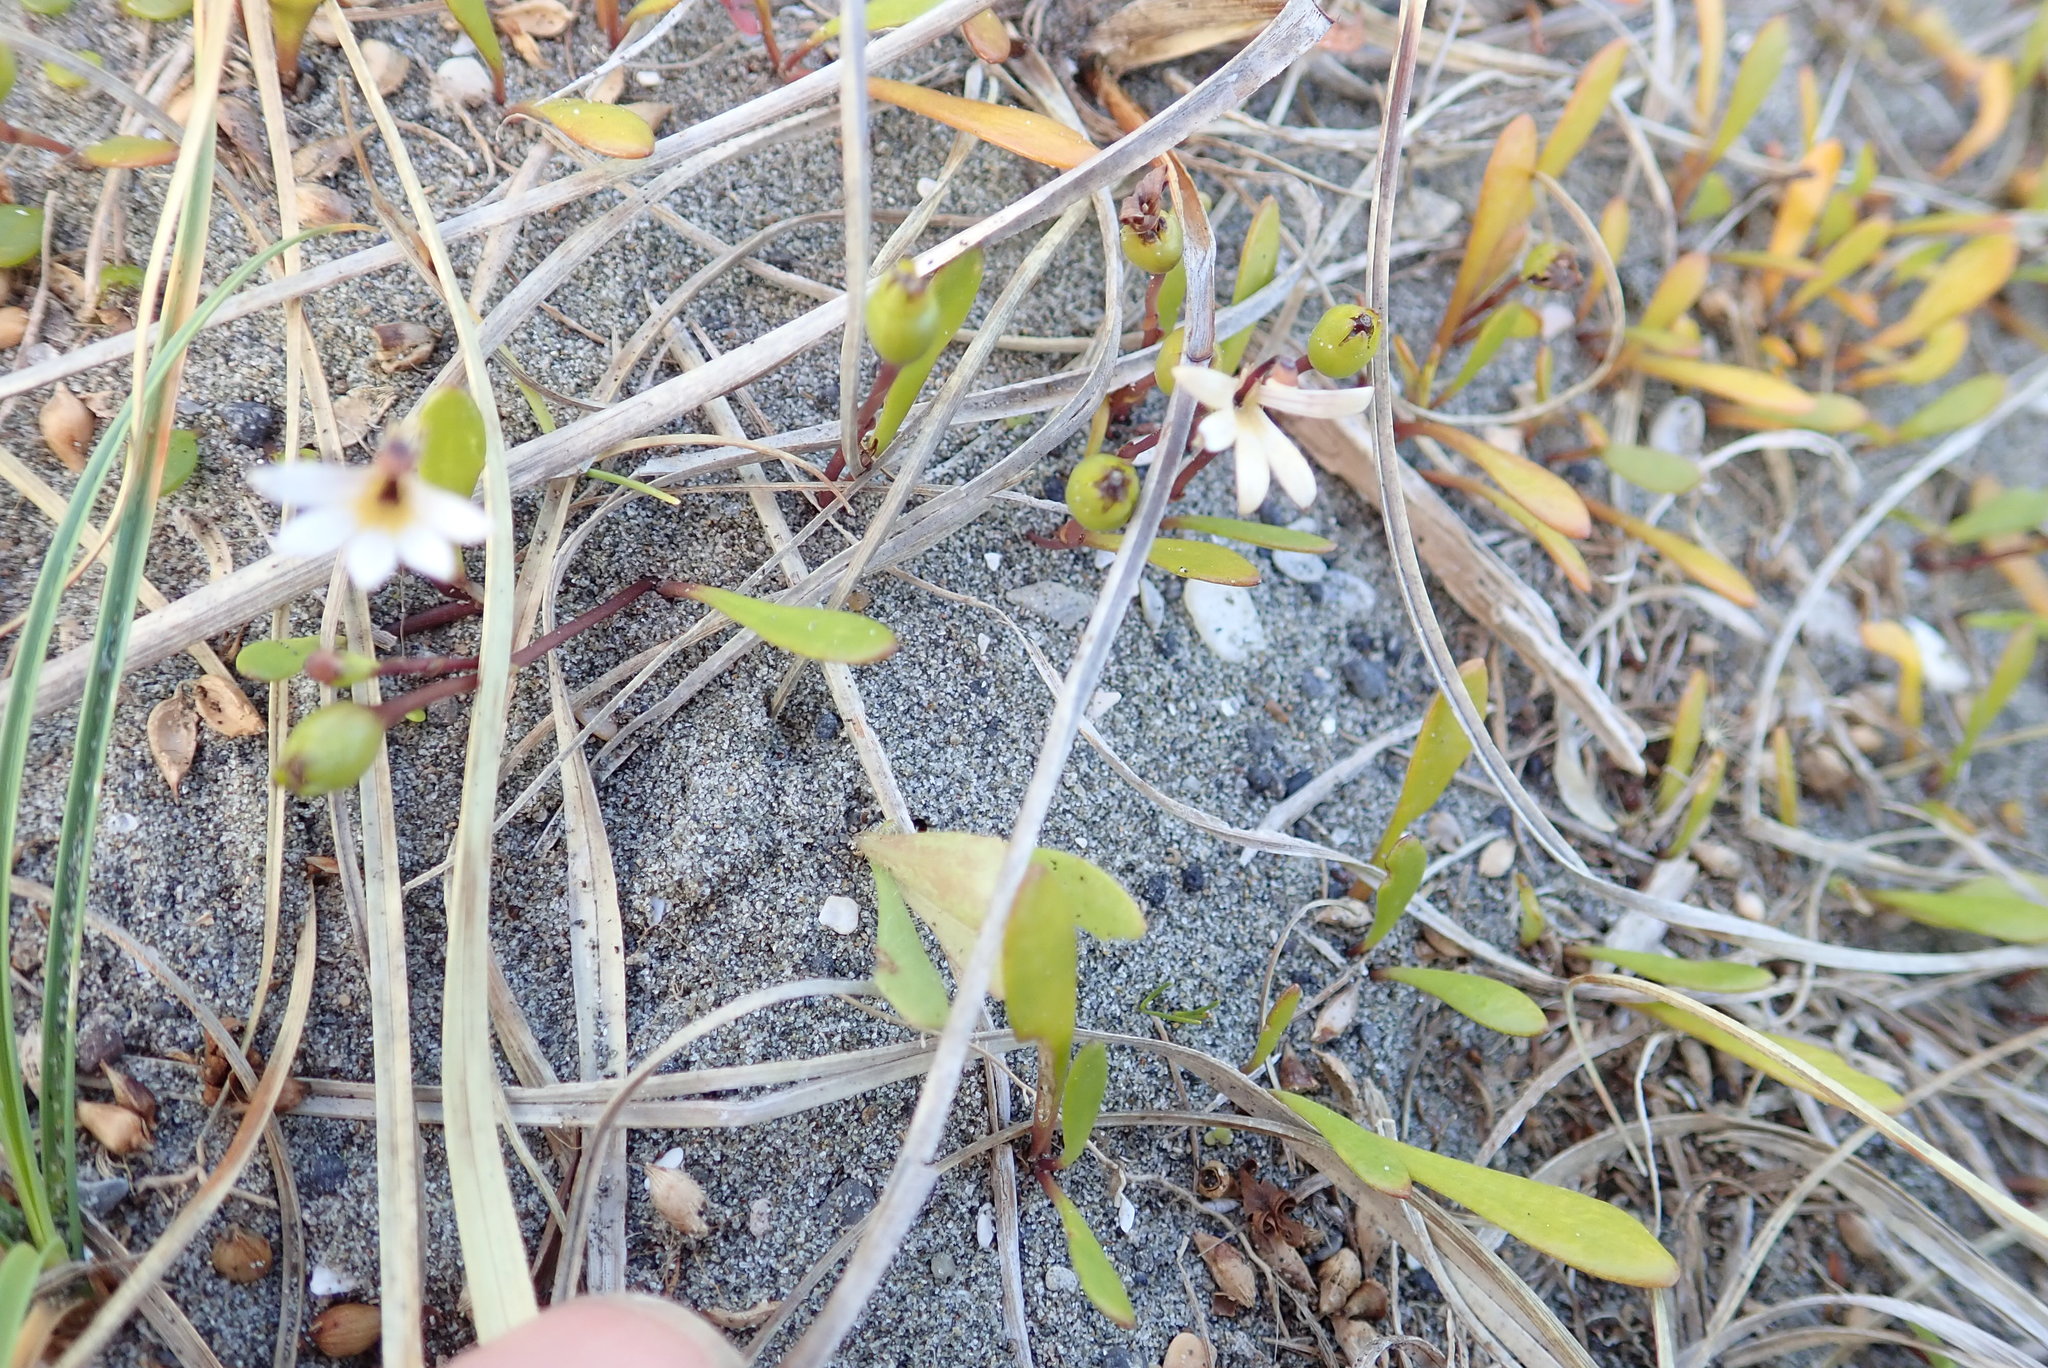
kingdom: Plantae
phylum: Tracheophyta
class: Magnoliopsida
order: Asterales
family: Goodeniaceae
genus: Goodenia
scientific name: Goodenia radicans
